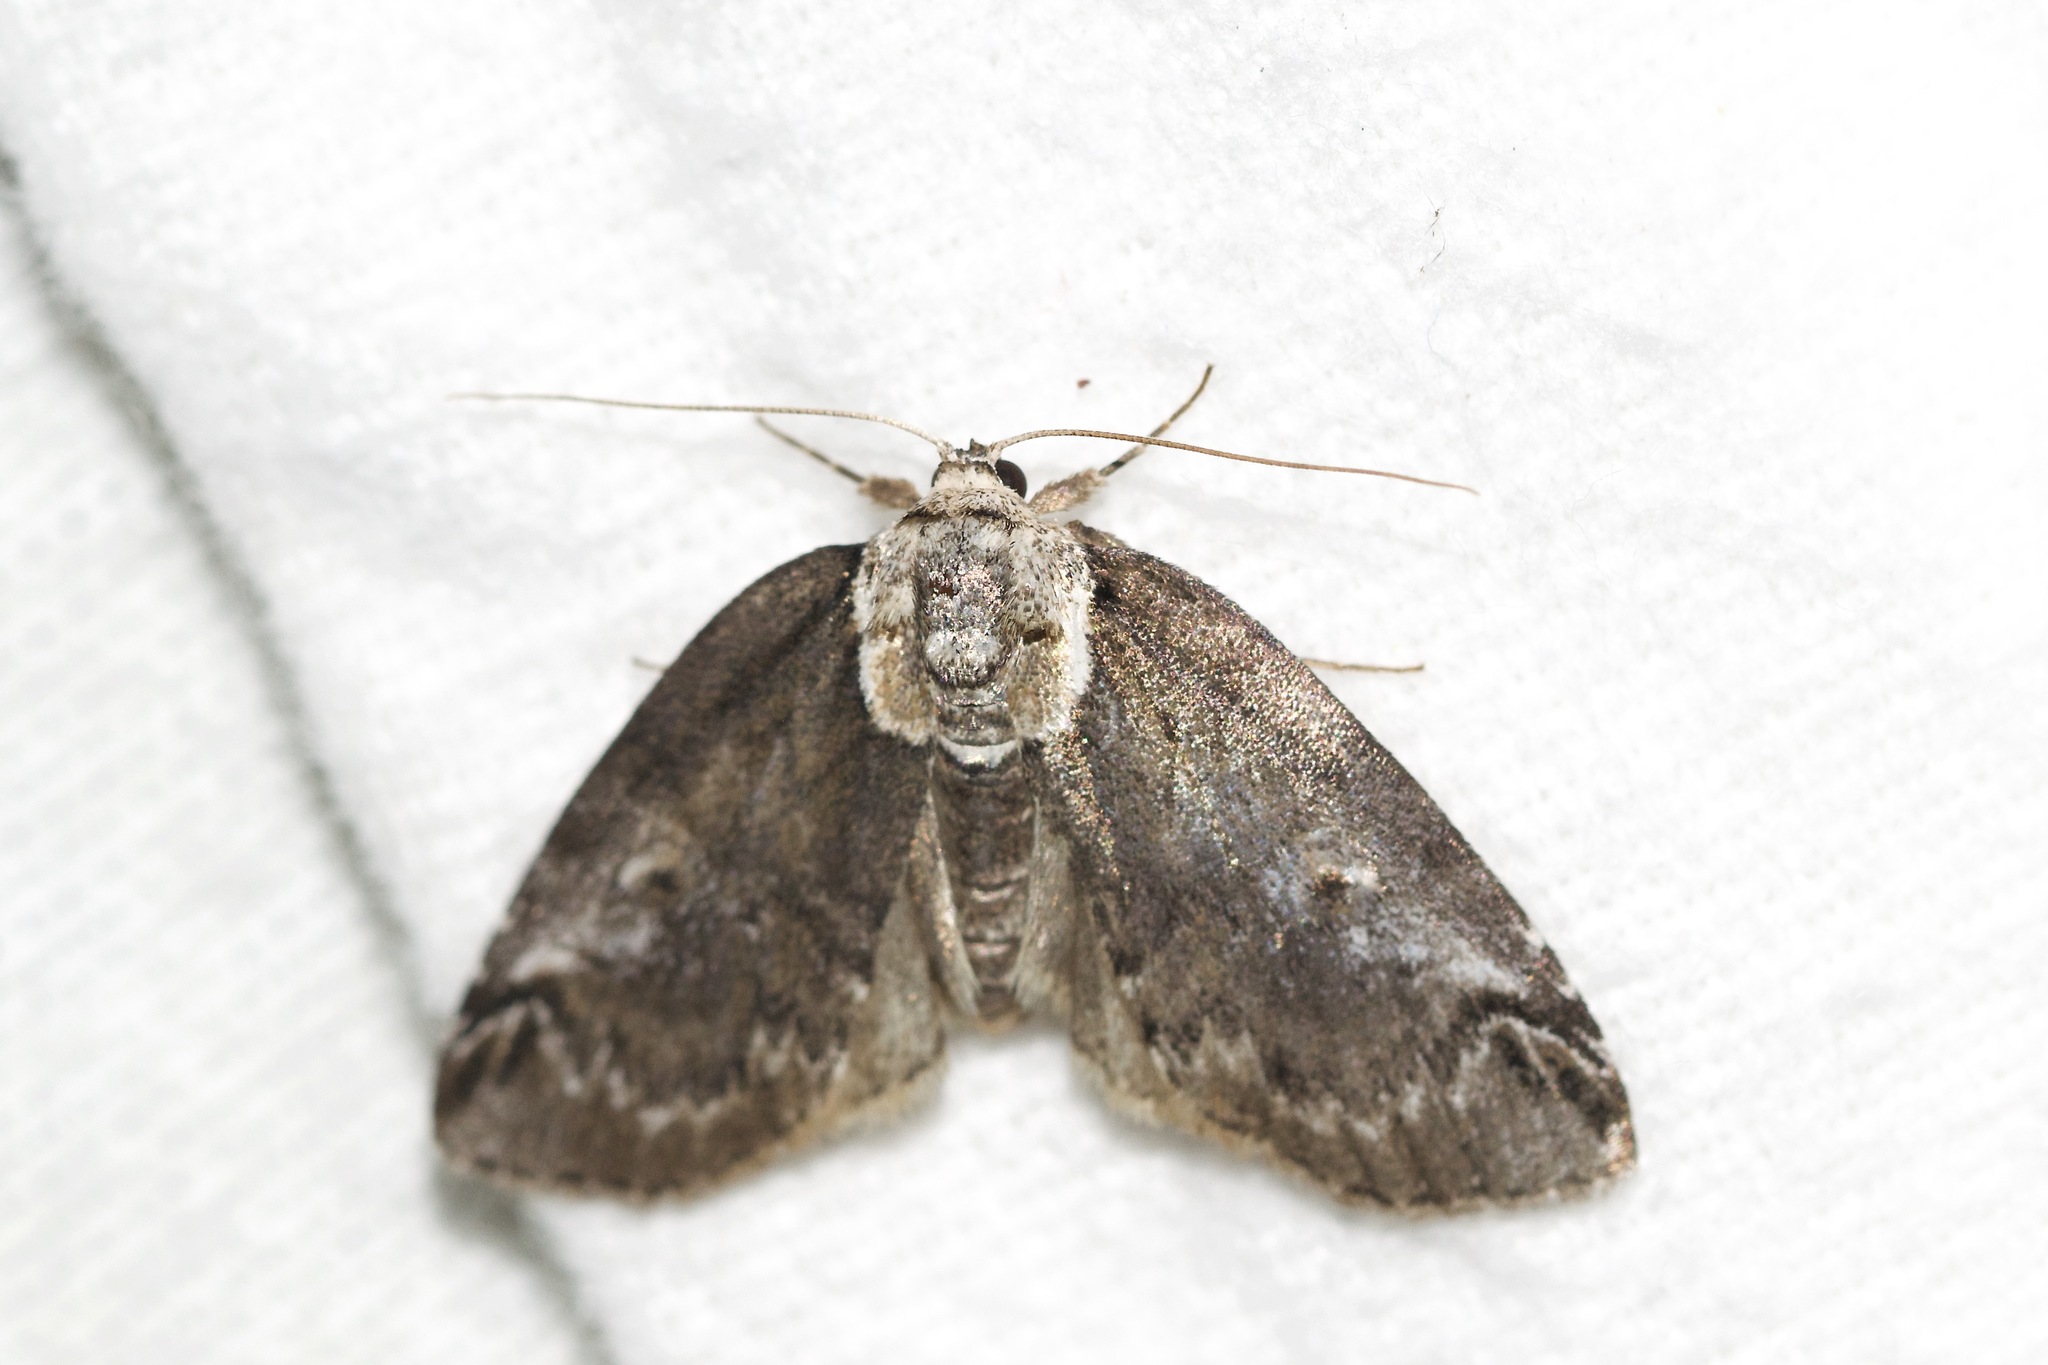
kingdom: Animalia
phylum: Arthropoda
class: Insecta
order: Lepidoptera
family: Nolidae
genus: Baileya
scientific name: Baileya ophthalmica
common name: Eyed baileya moth
